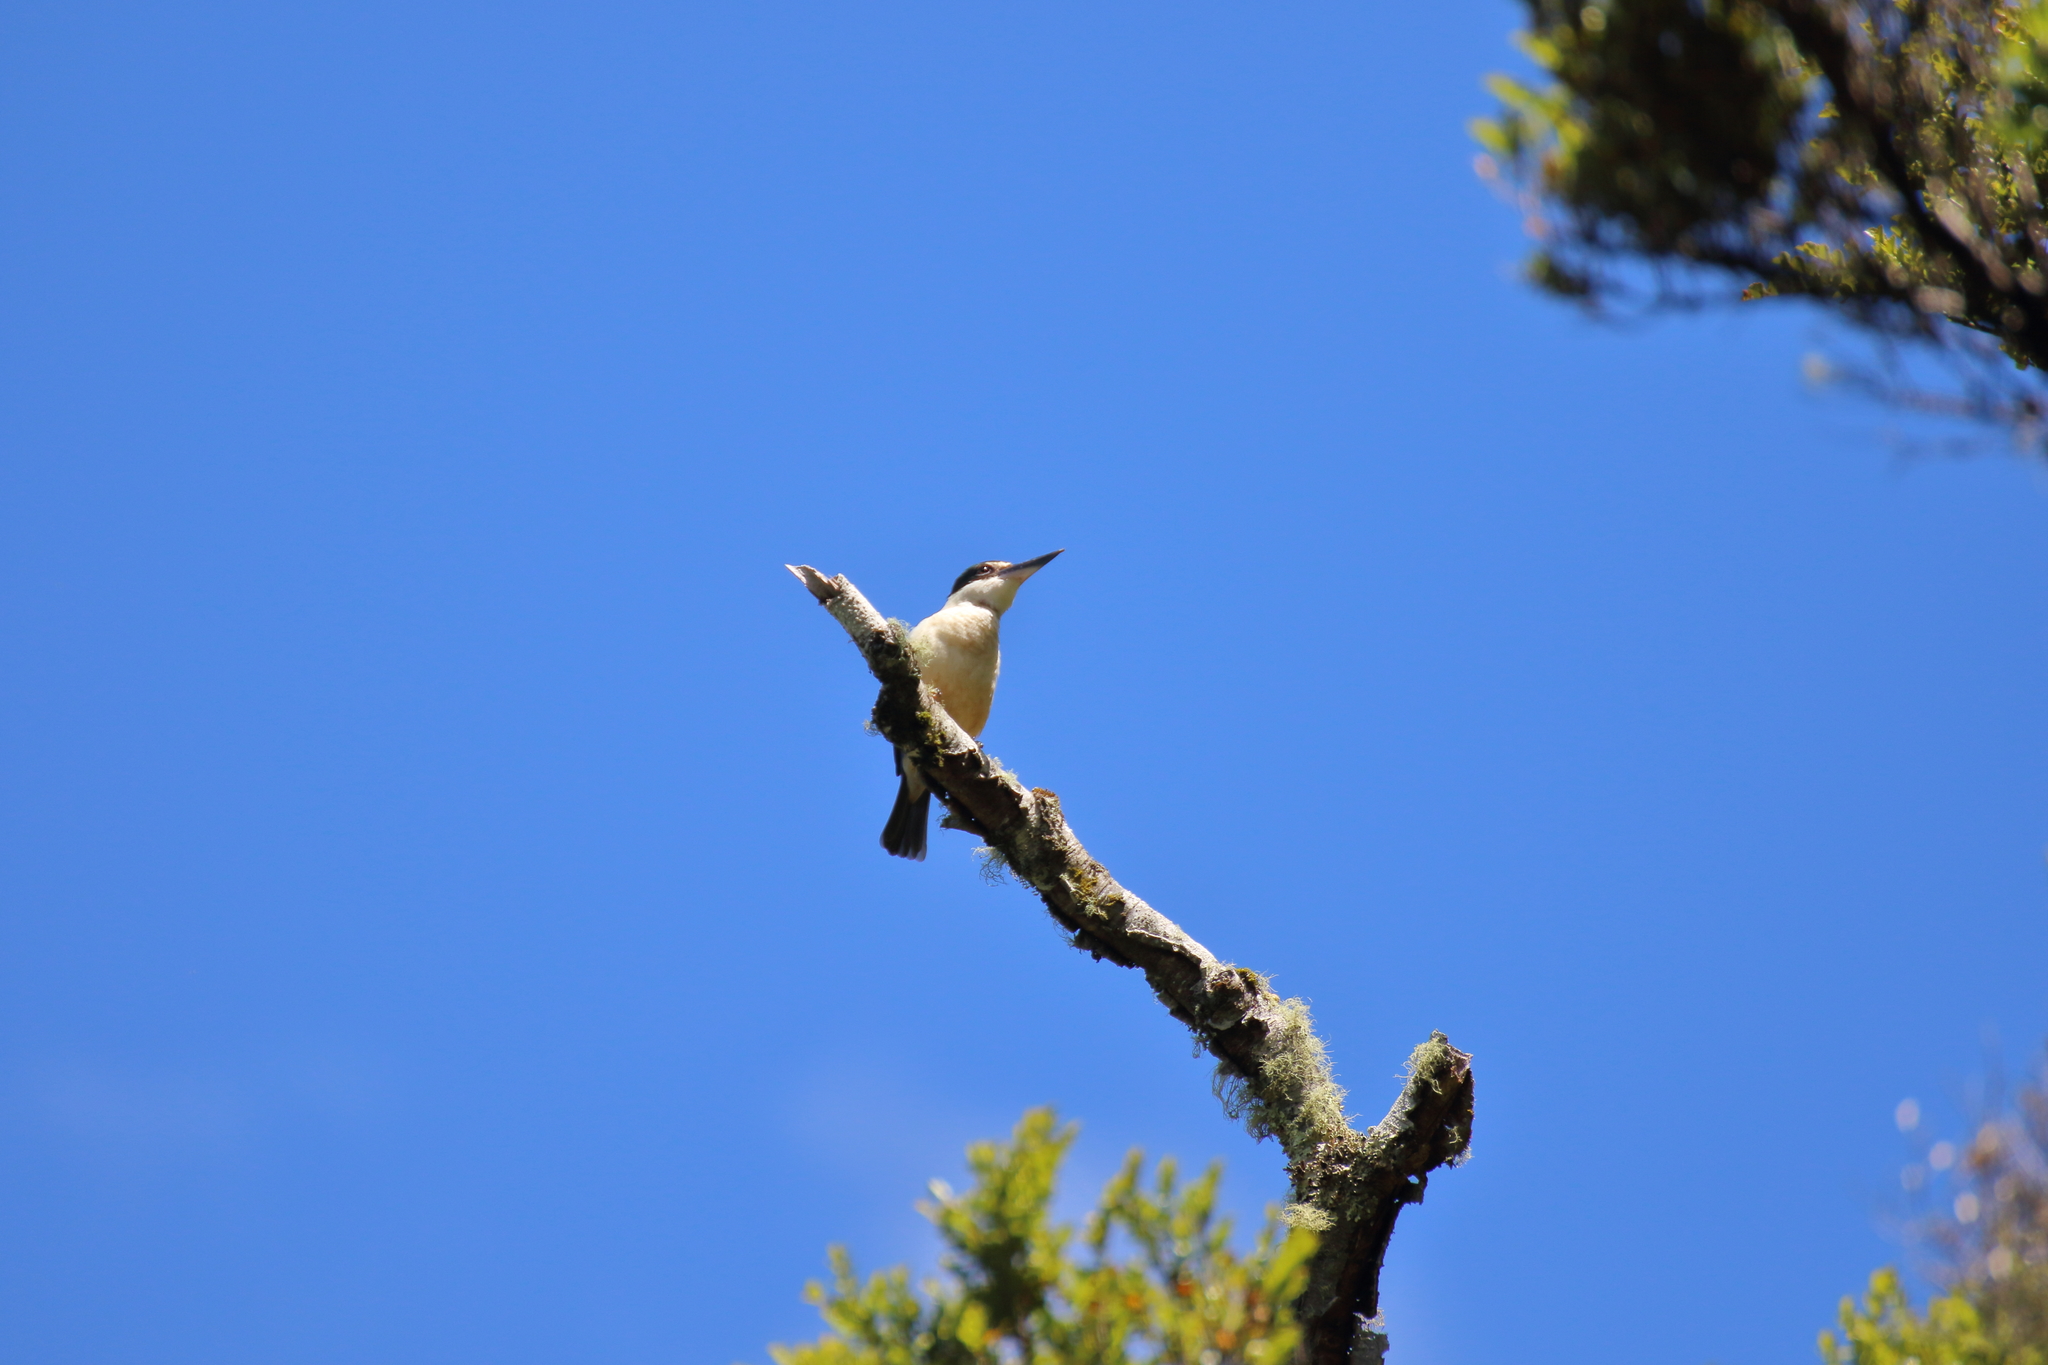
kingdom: Animalia
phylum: Chordata
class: Aves
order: Coraciiformes
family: Alcedinidae
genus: Todiramphus
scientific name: Todiramphus sanctus
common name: Sacred kingfisher
